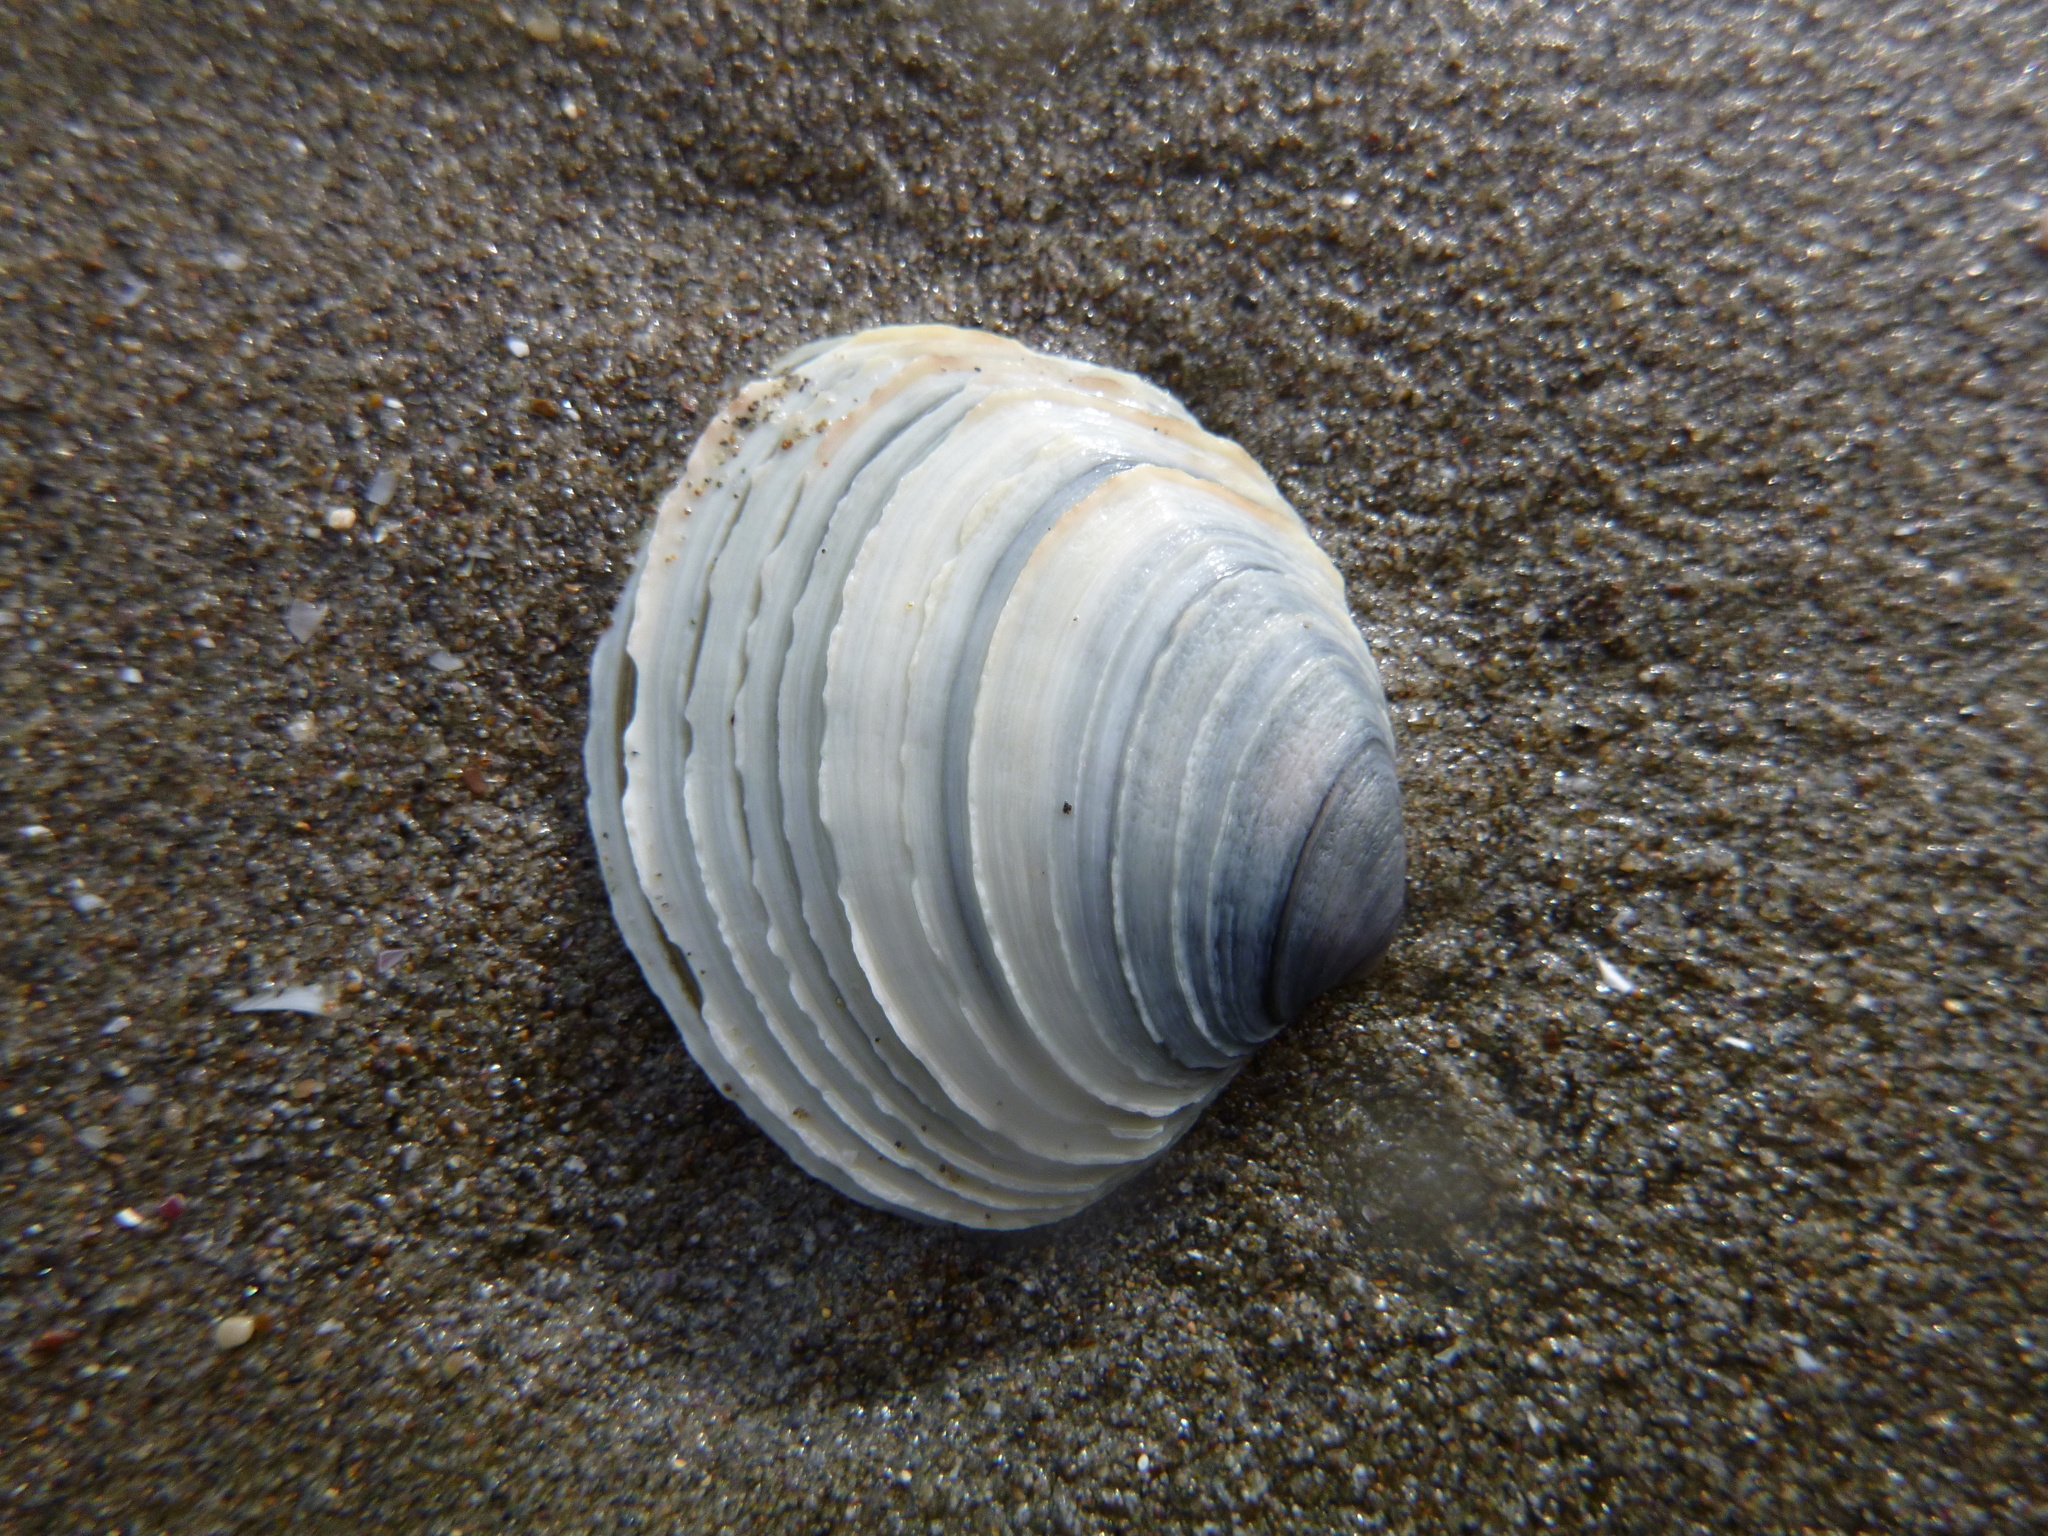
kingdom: Animalia
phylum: Mollusca
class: Bivalvia
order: Venerida
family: Veneridae
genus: Bassina
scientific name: Bassina yatei
